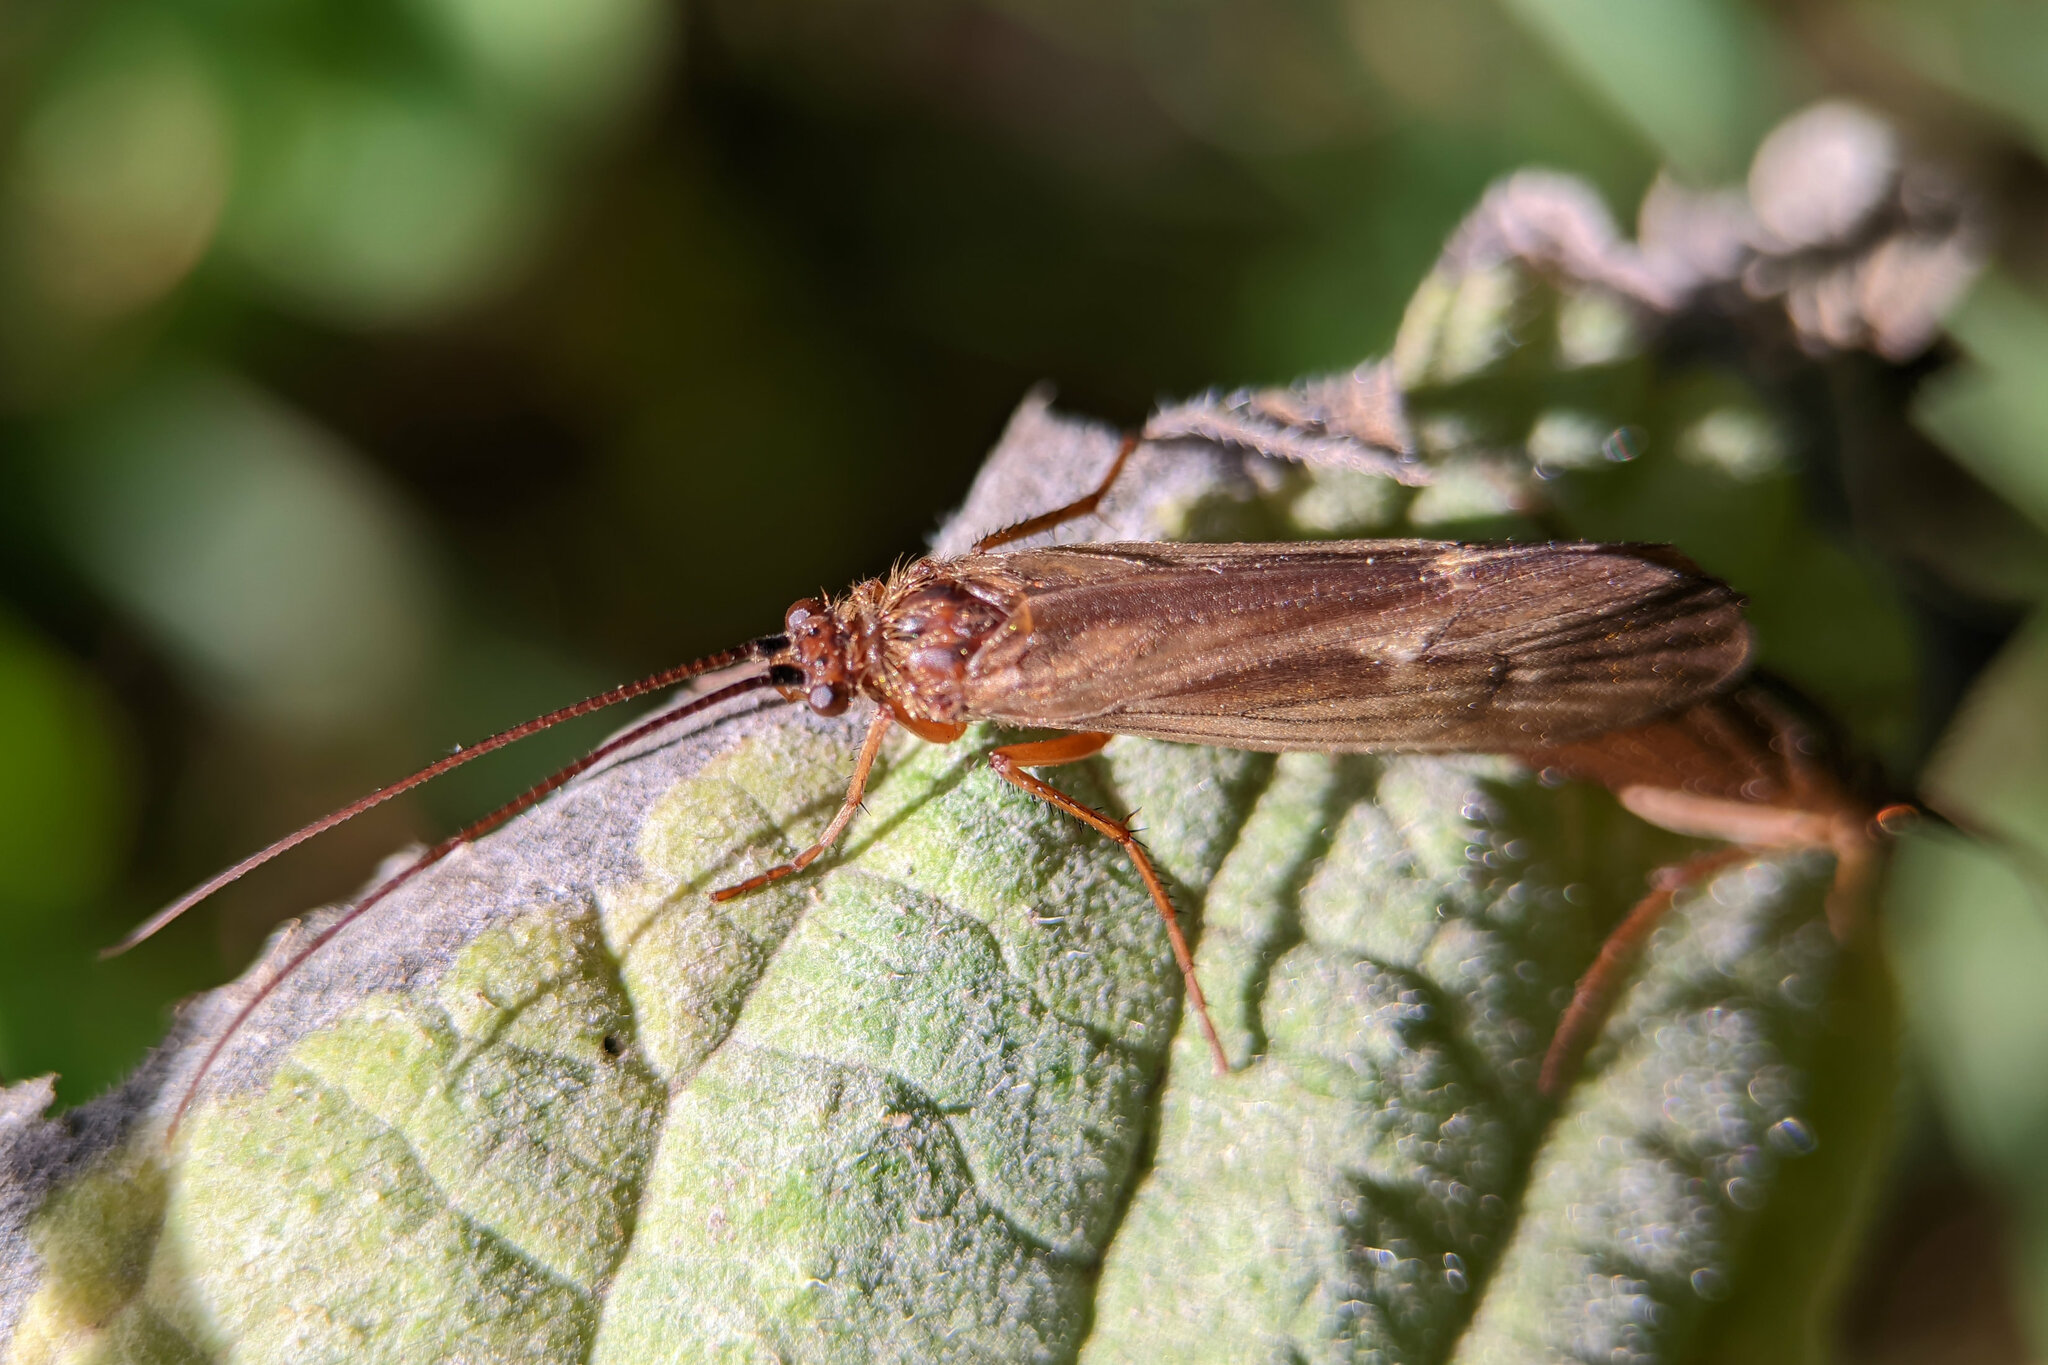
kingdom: Animalia
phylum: Arthropoda
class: Insecta
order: Trichoptera
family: Limnephilidae
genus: Anabolia
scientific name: Anabolia nervosa
